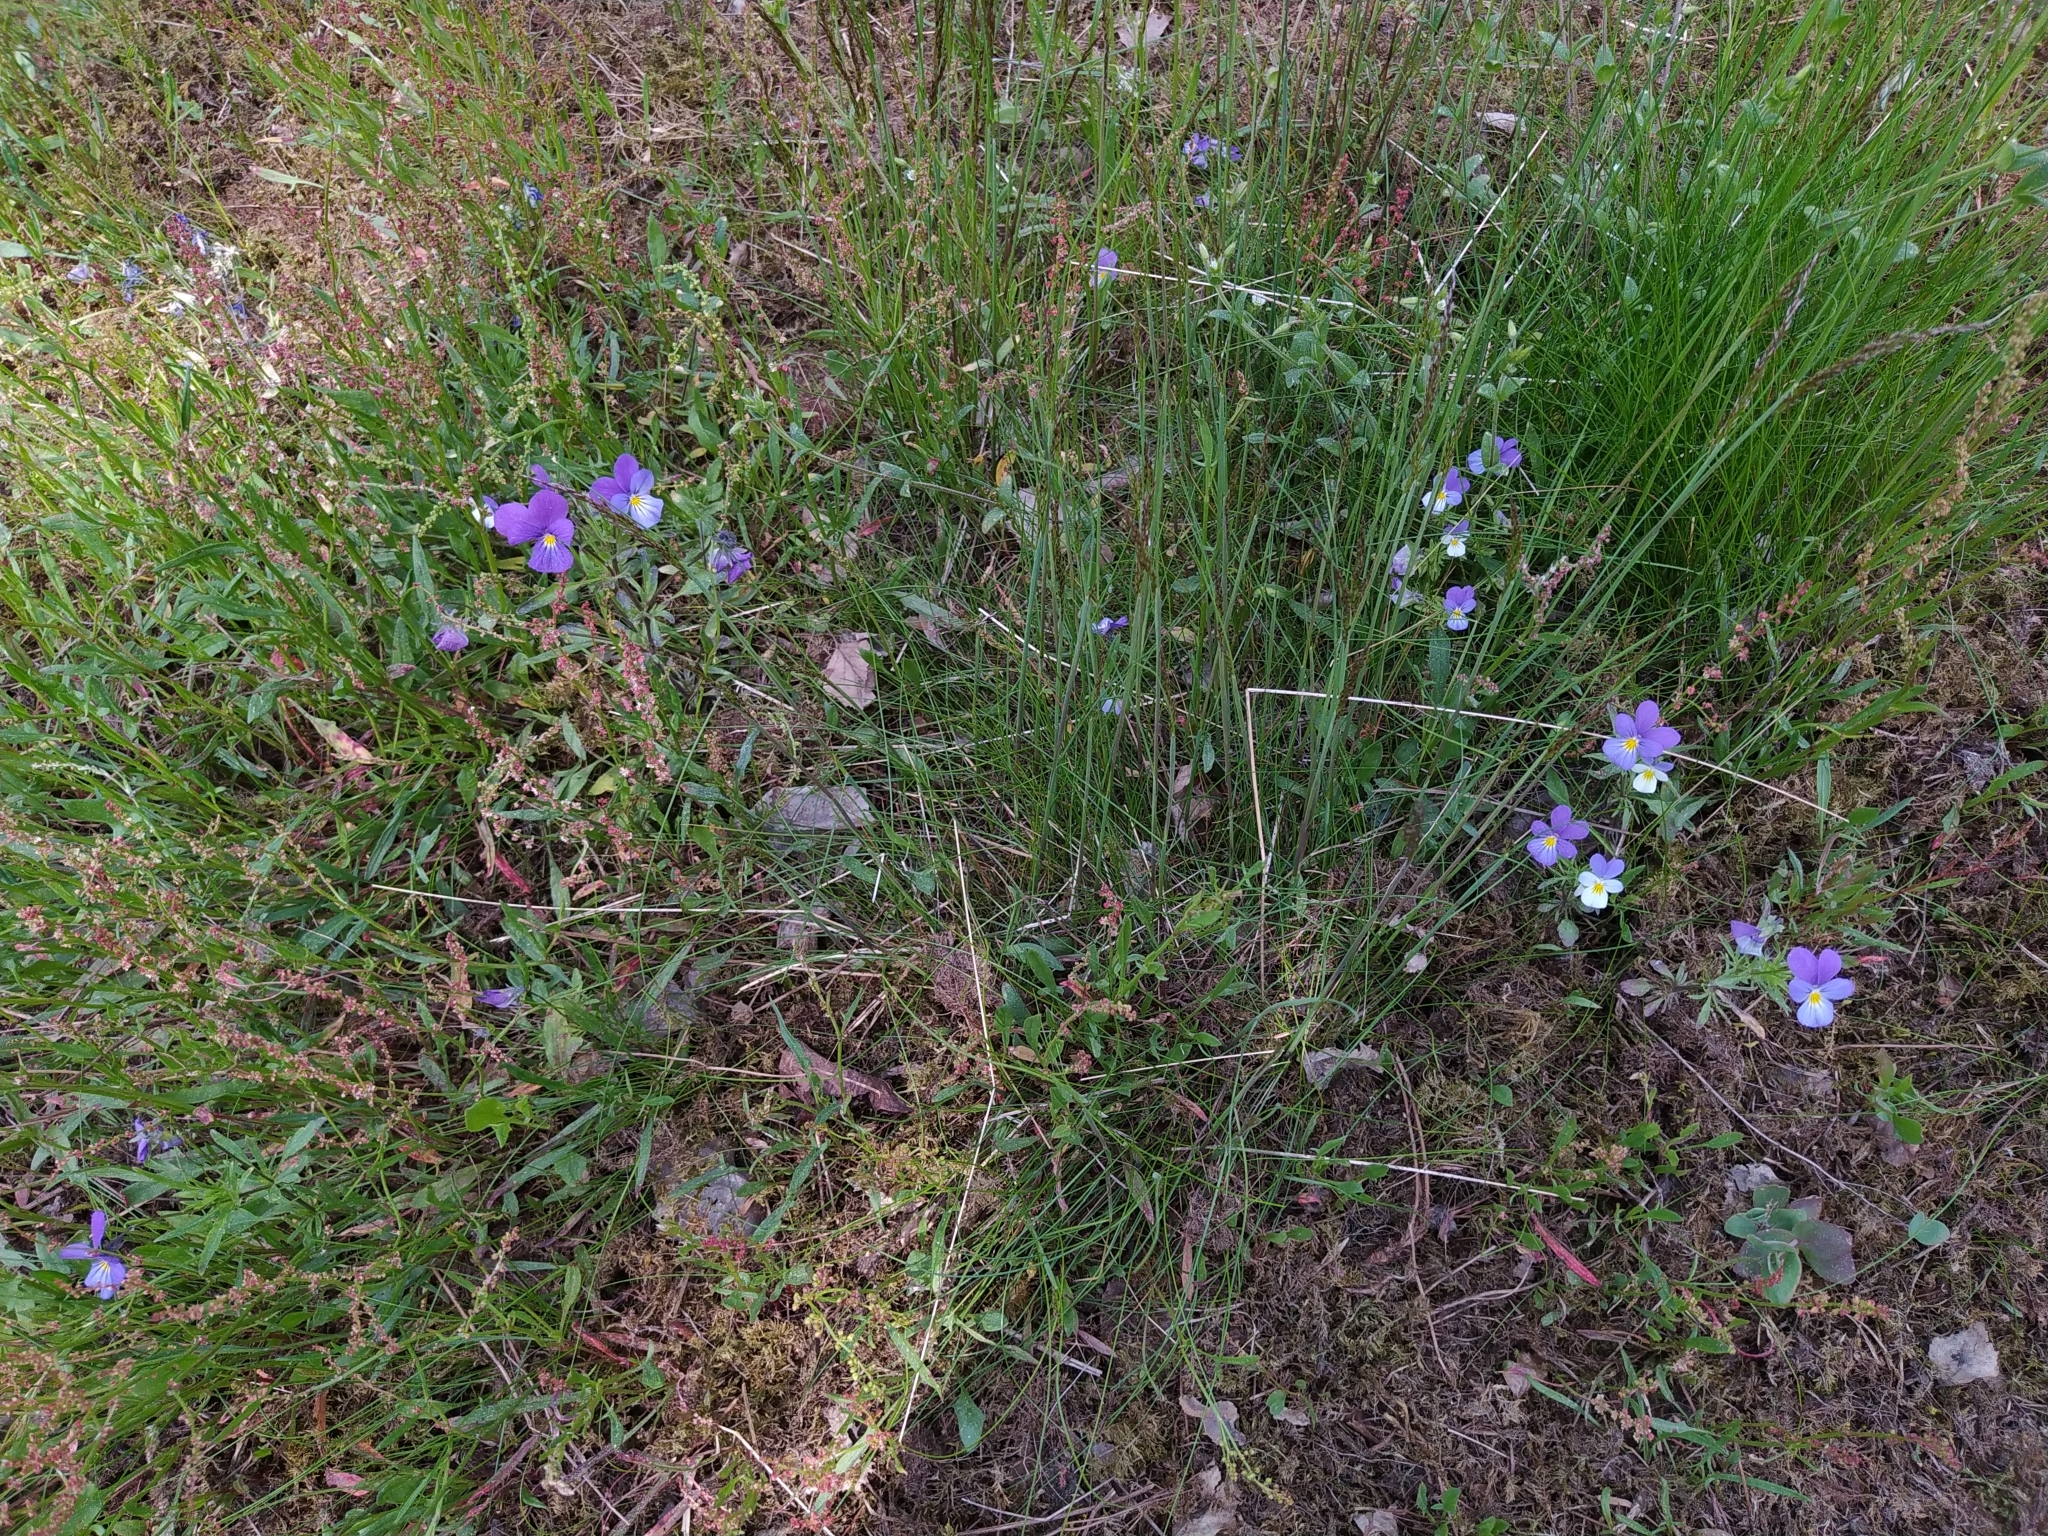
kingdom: Plantae
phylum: Tracheophyta
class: Magnoliopsida
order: Malpighiales
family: Violaceae
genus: Viola
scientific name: Viola tricolor
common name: Pansy
